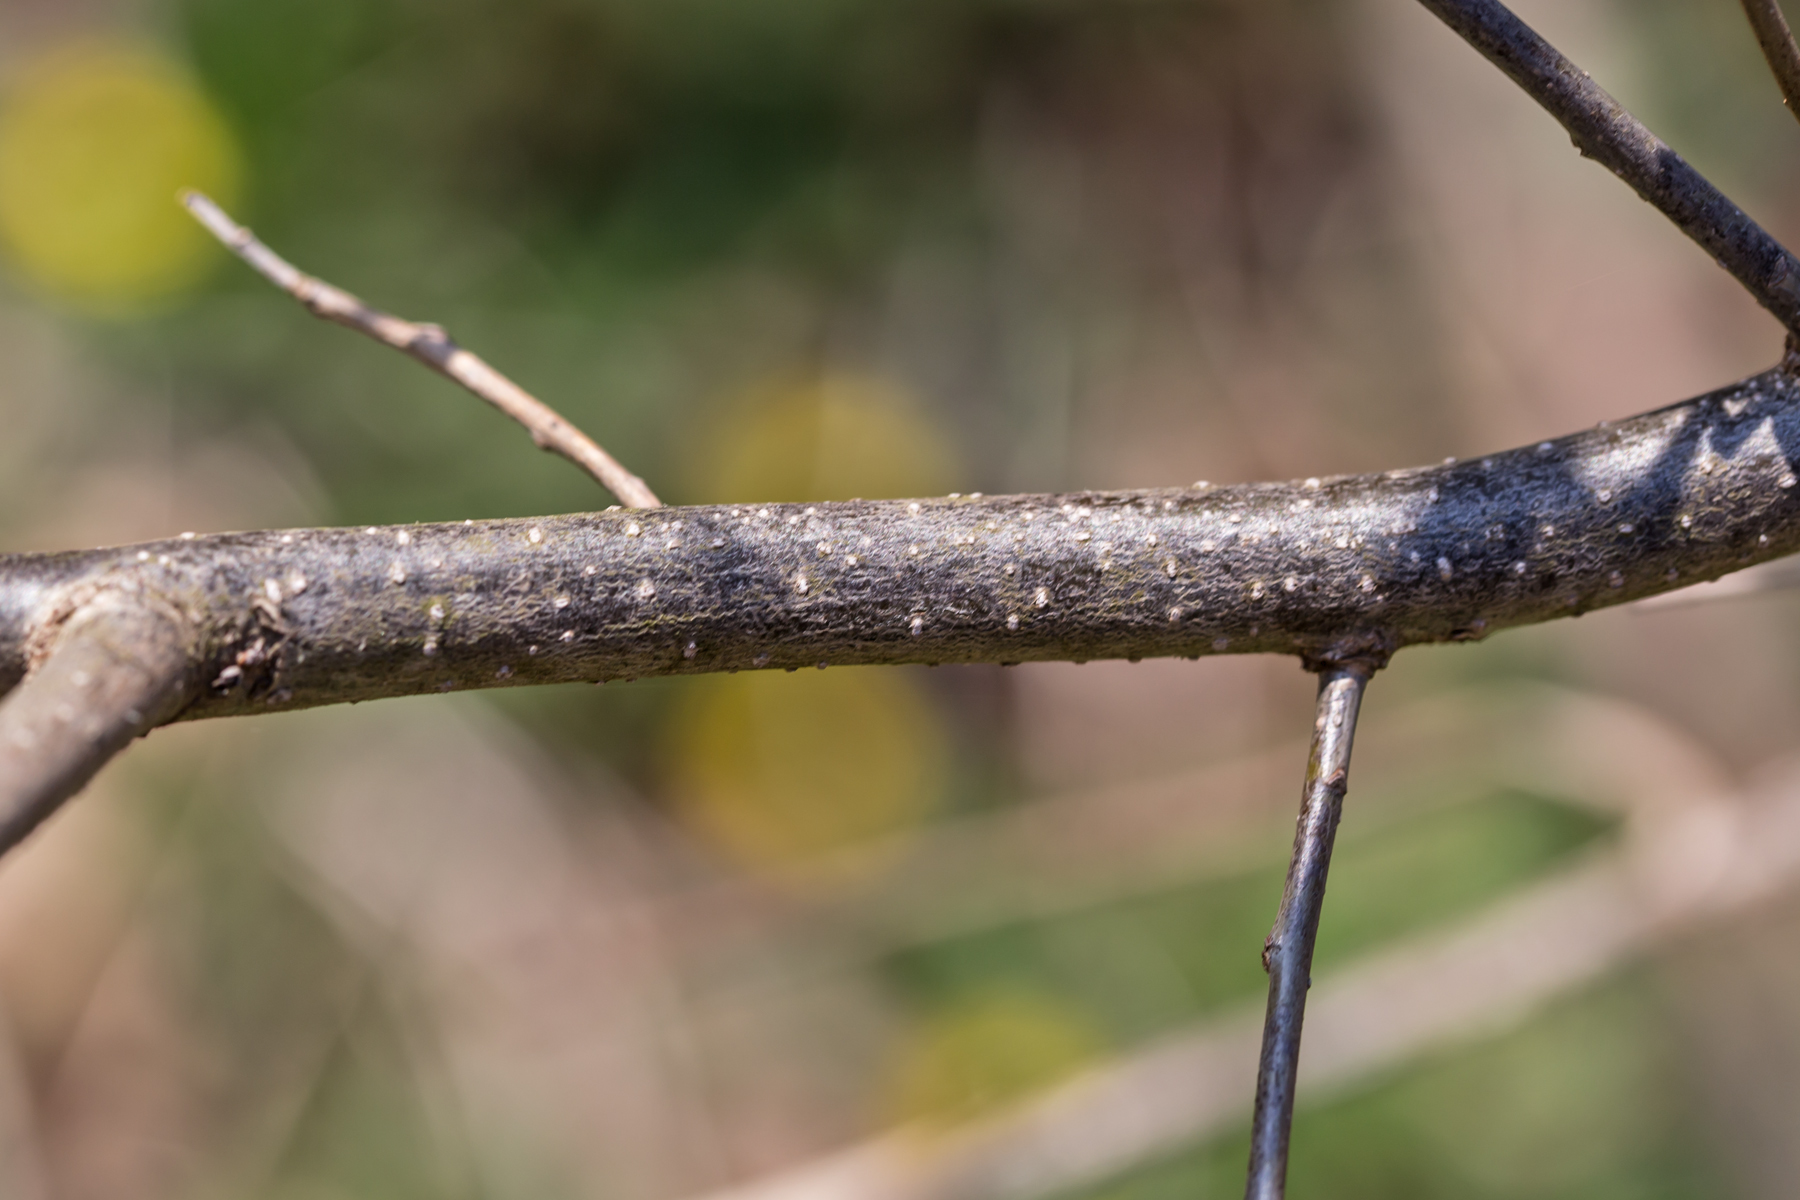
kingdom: Plantae
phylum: Tracheophyta
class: Magnoliopsida
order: Laurales
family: Lauraceae
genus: Lindera
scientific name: Lindera benzoin
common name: Spicebush
